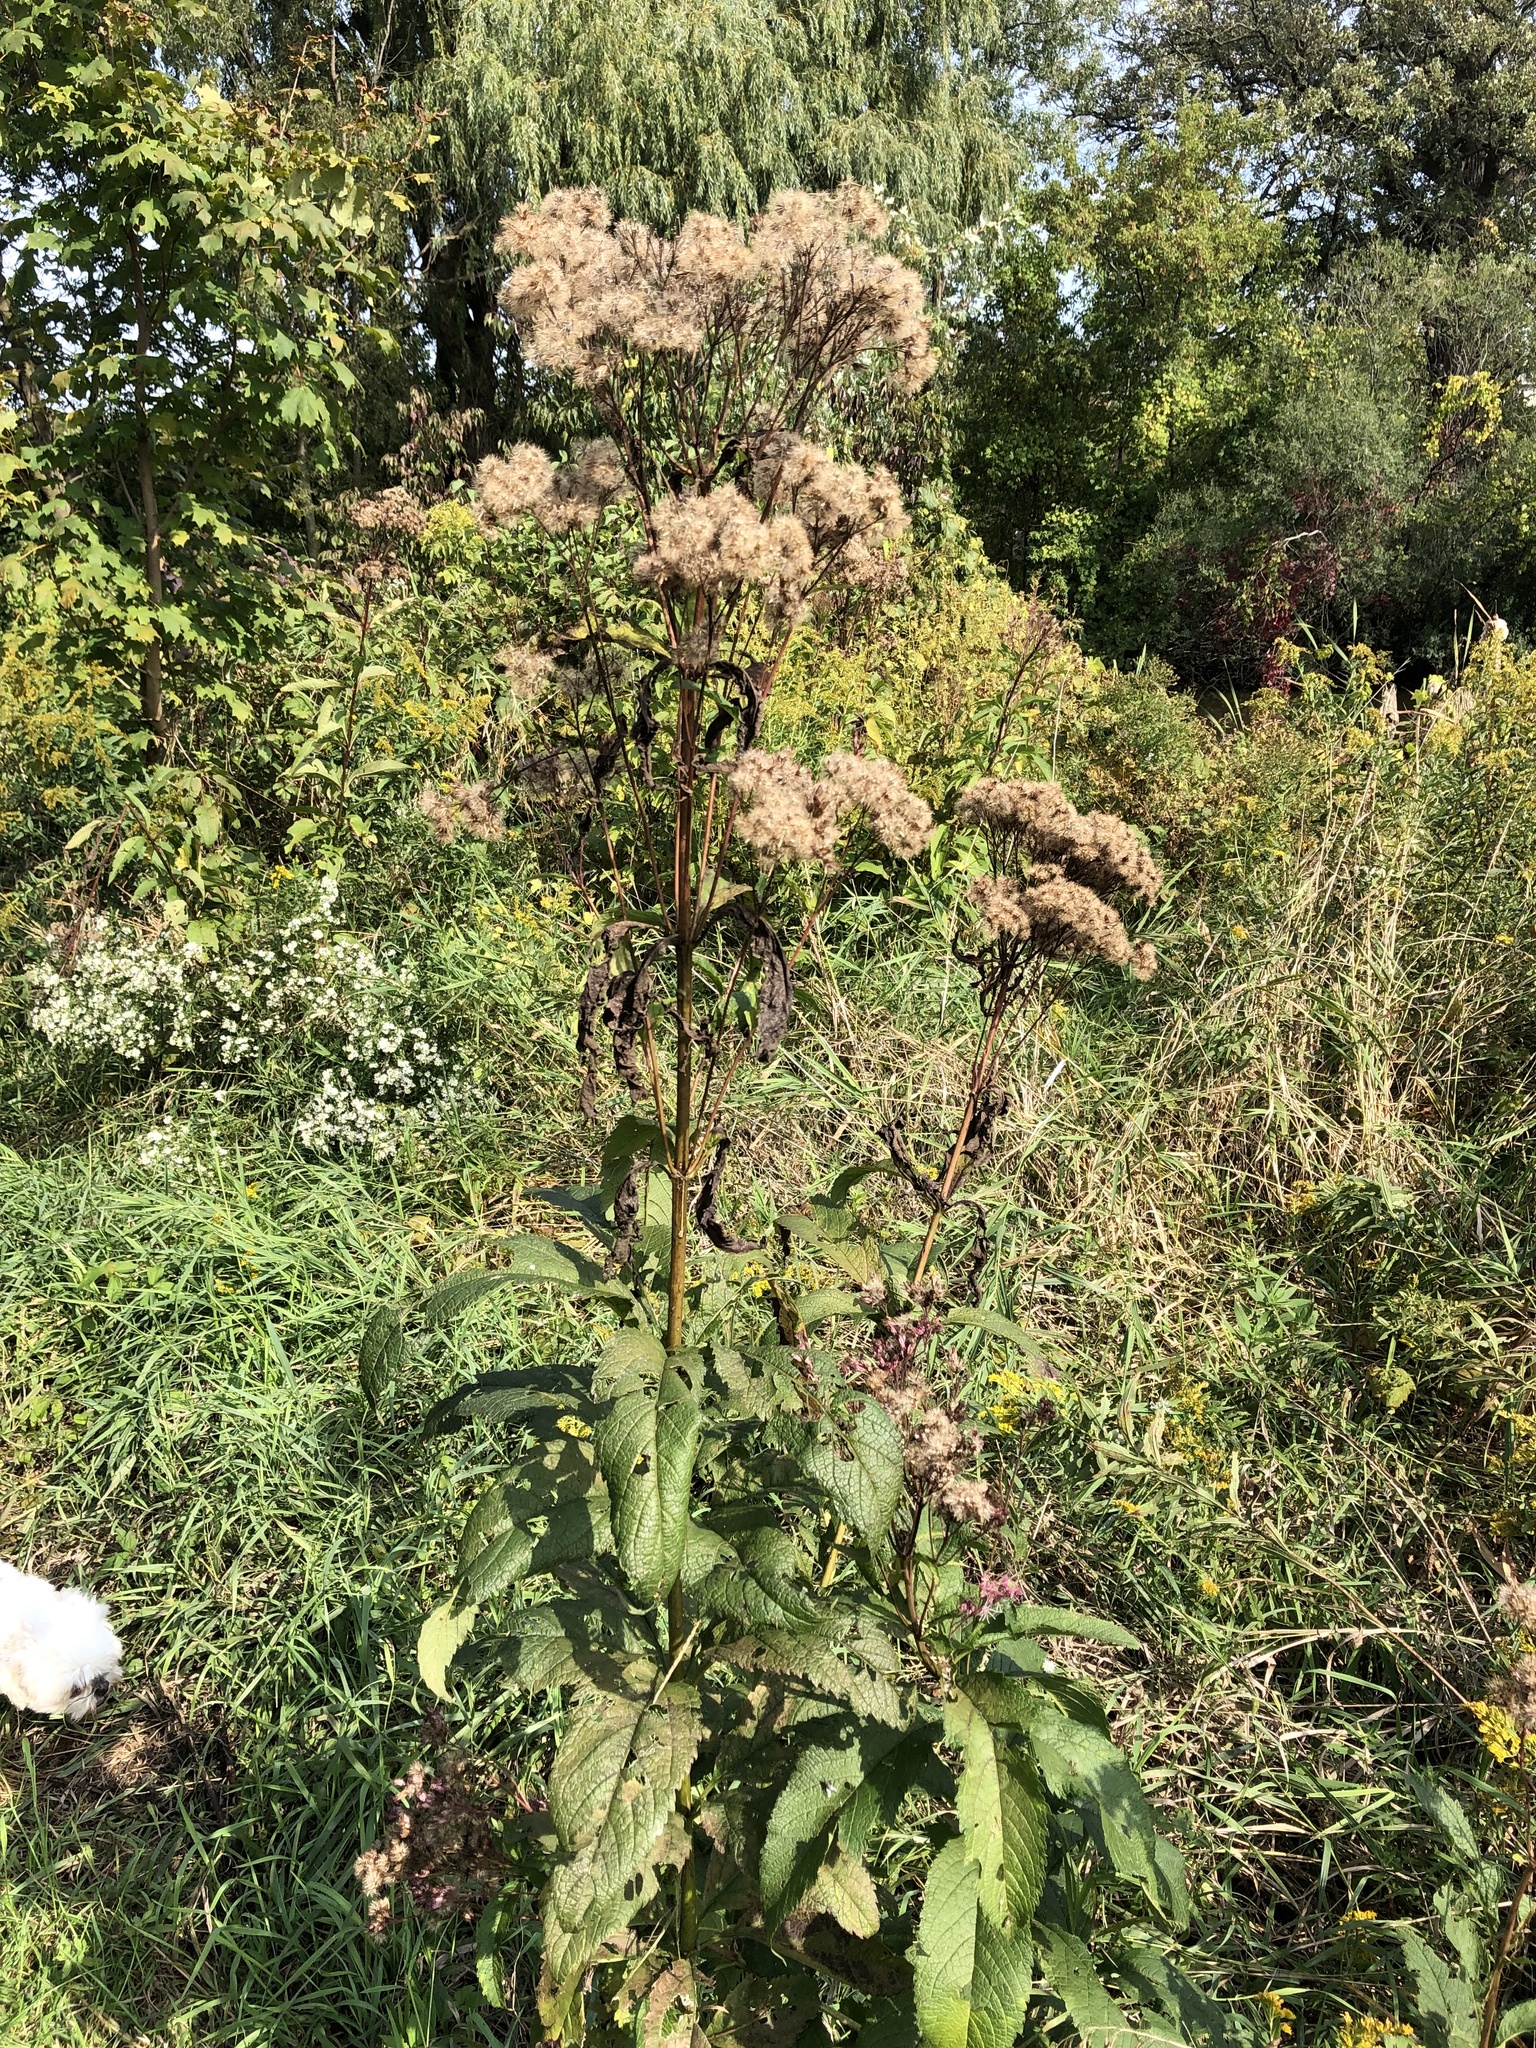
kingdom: Plantae
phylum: Tracheophyta
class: Magnoliopsida
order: Asterales
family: Asteraceae
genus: Eutrochium
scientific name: Eutrochium maculatum
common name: Spotted joe pye weed
